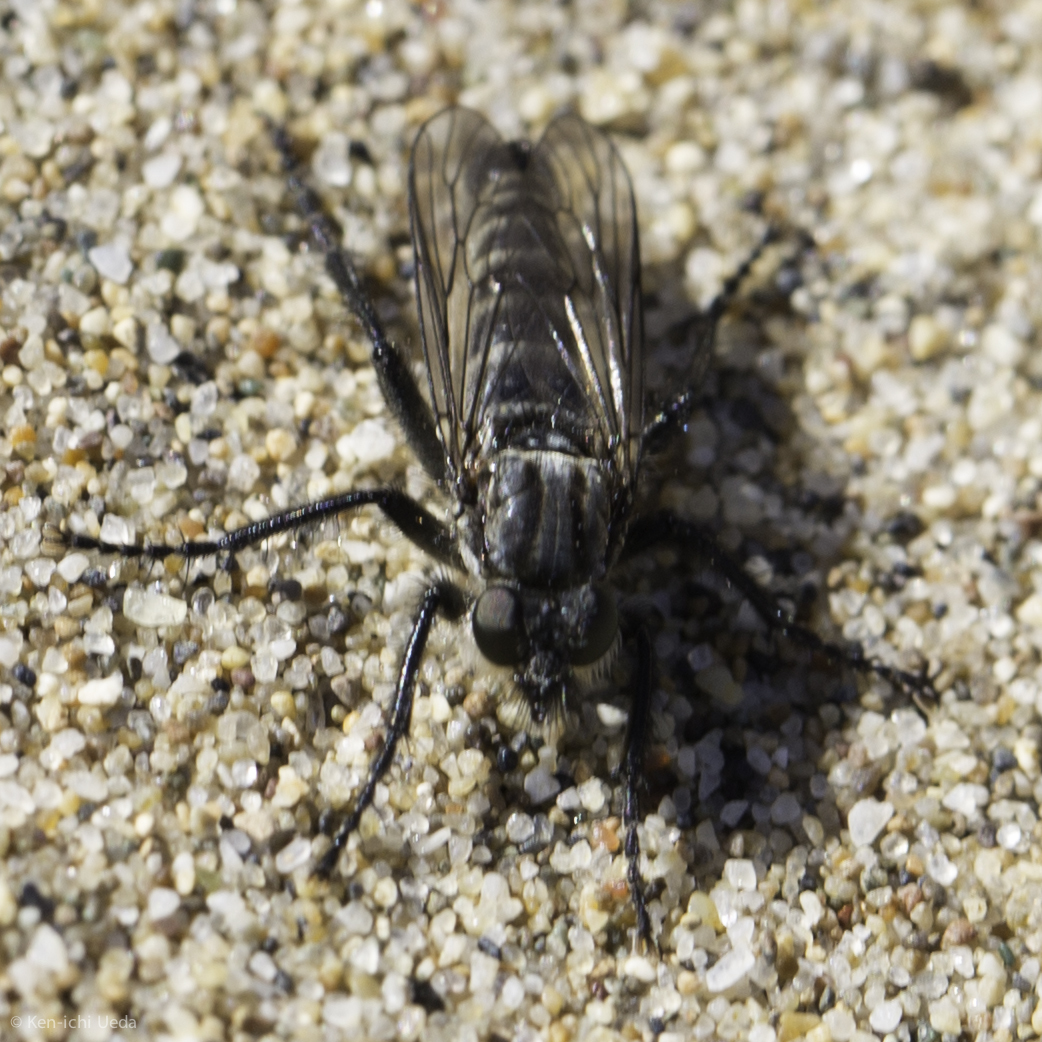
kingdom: Animalia
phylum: Arthropoda
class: Insecta
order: Diptera
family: Asilidae
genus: Lasiopogon
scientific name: Lasiopogon bivittatus
